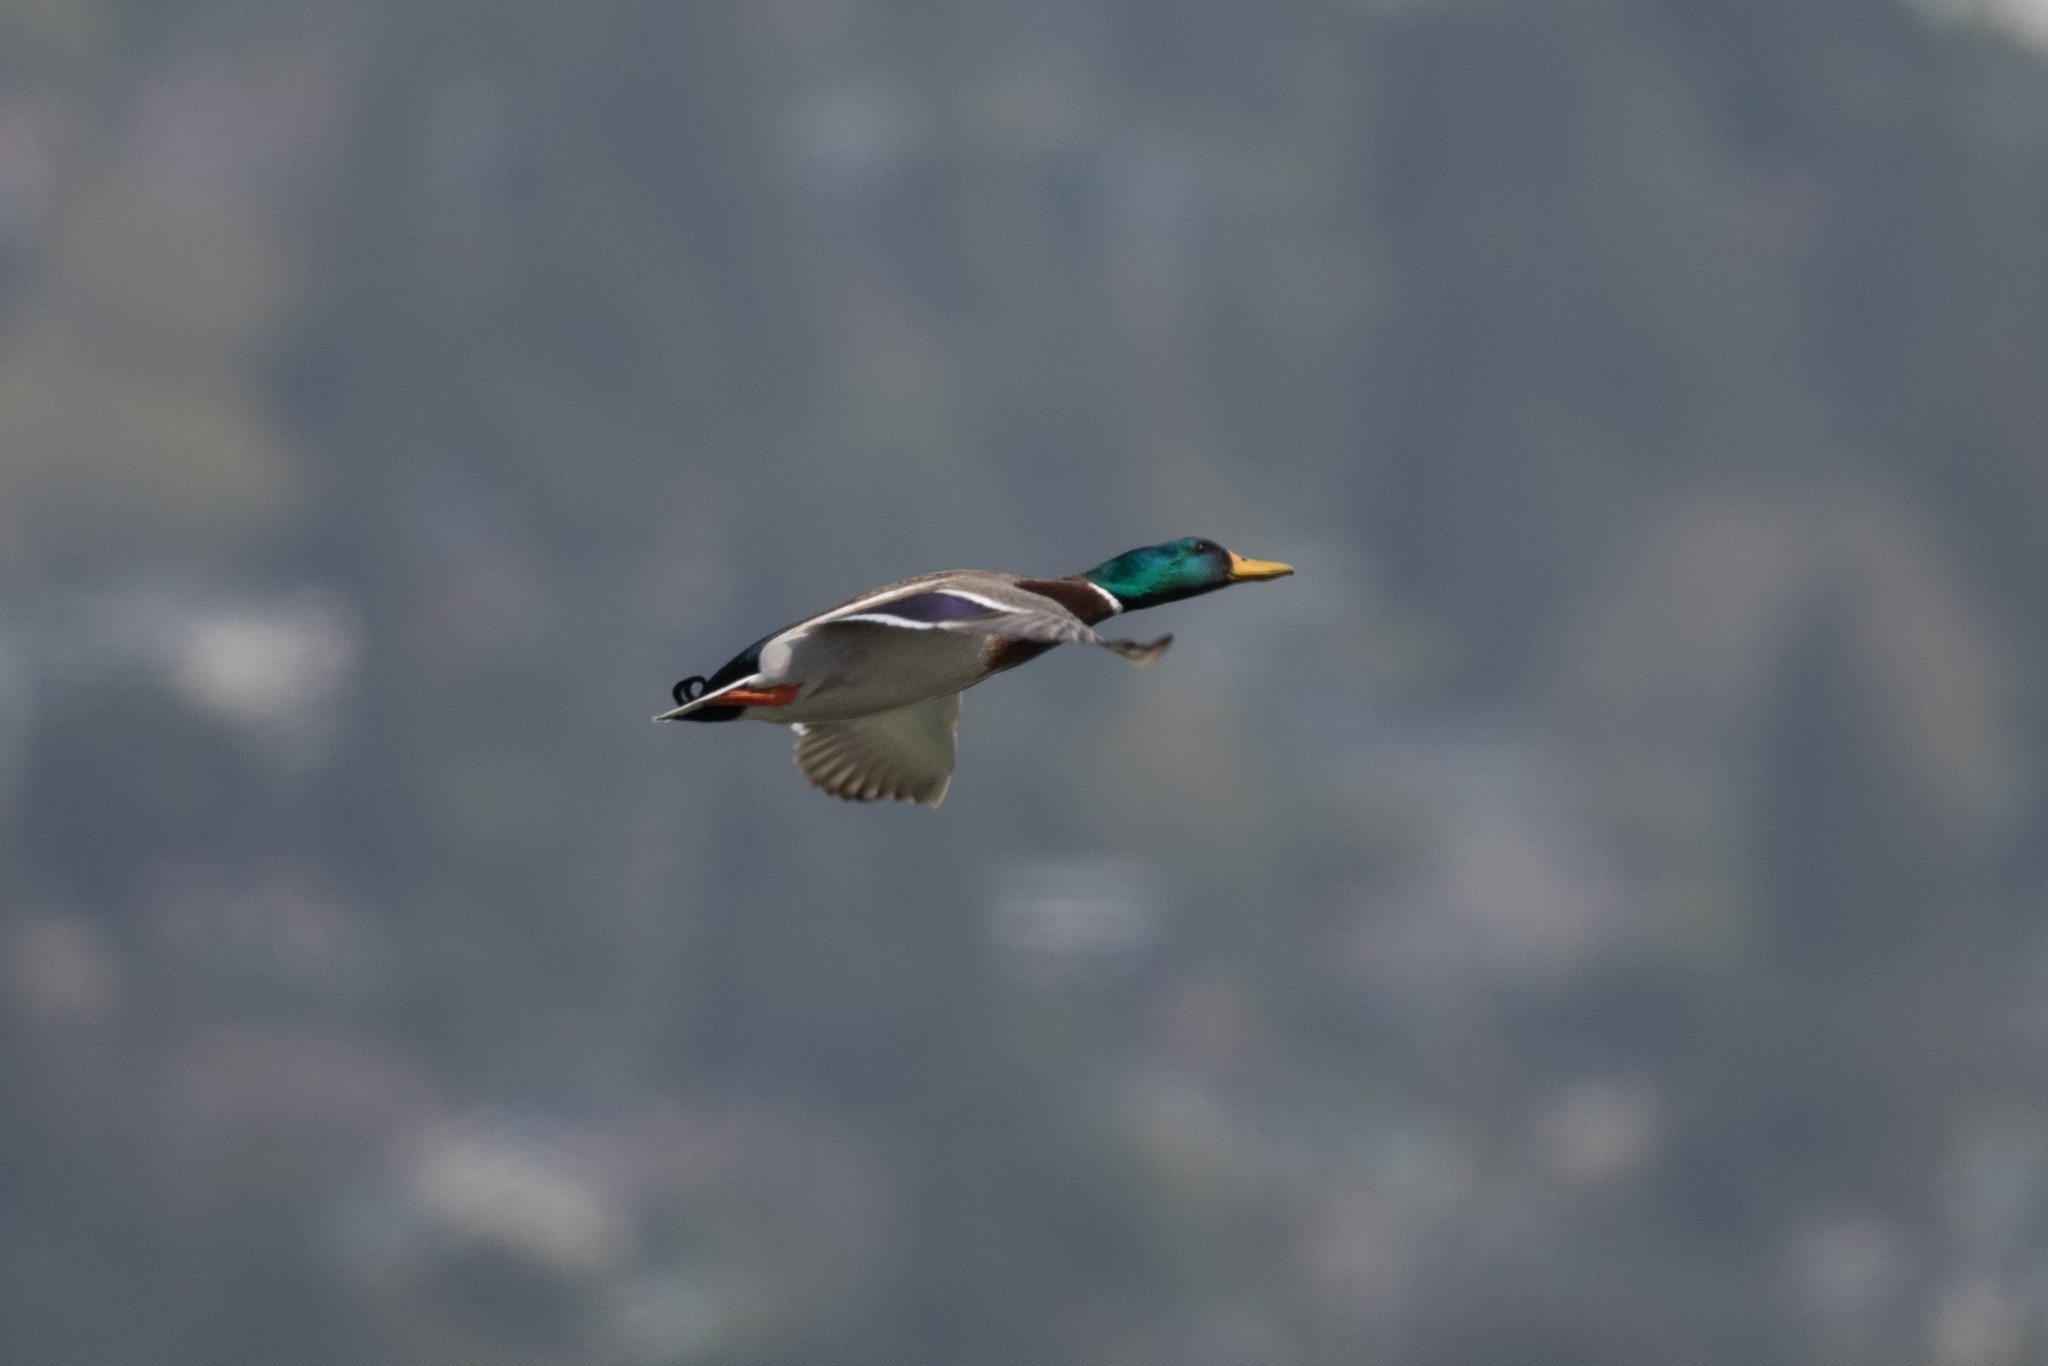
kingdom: Animalia
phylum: Chordata
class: Aves
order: Anseriformes
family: Anatidae
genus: Anas
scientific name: Anas platyrhynchos
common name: Mallard
